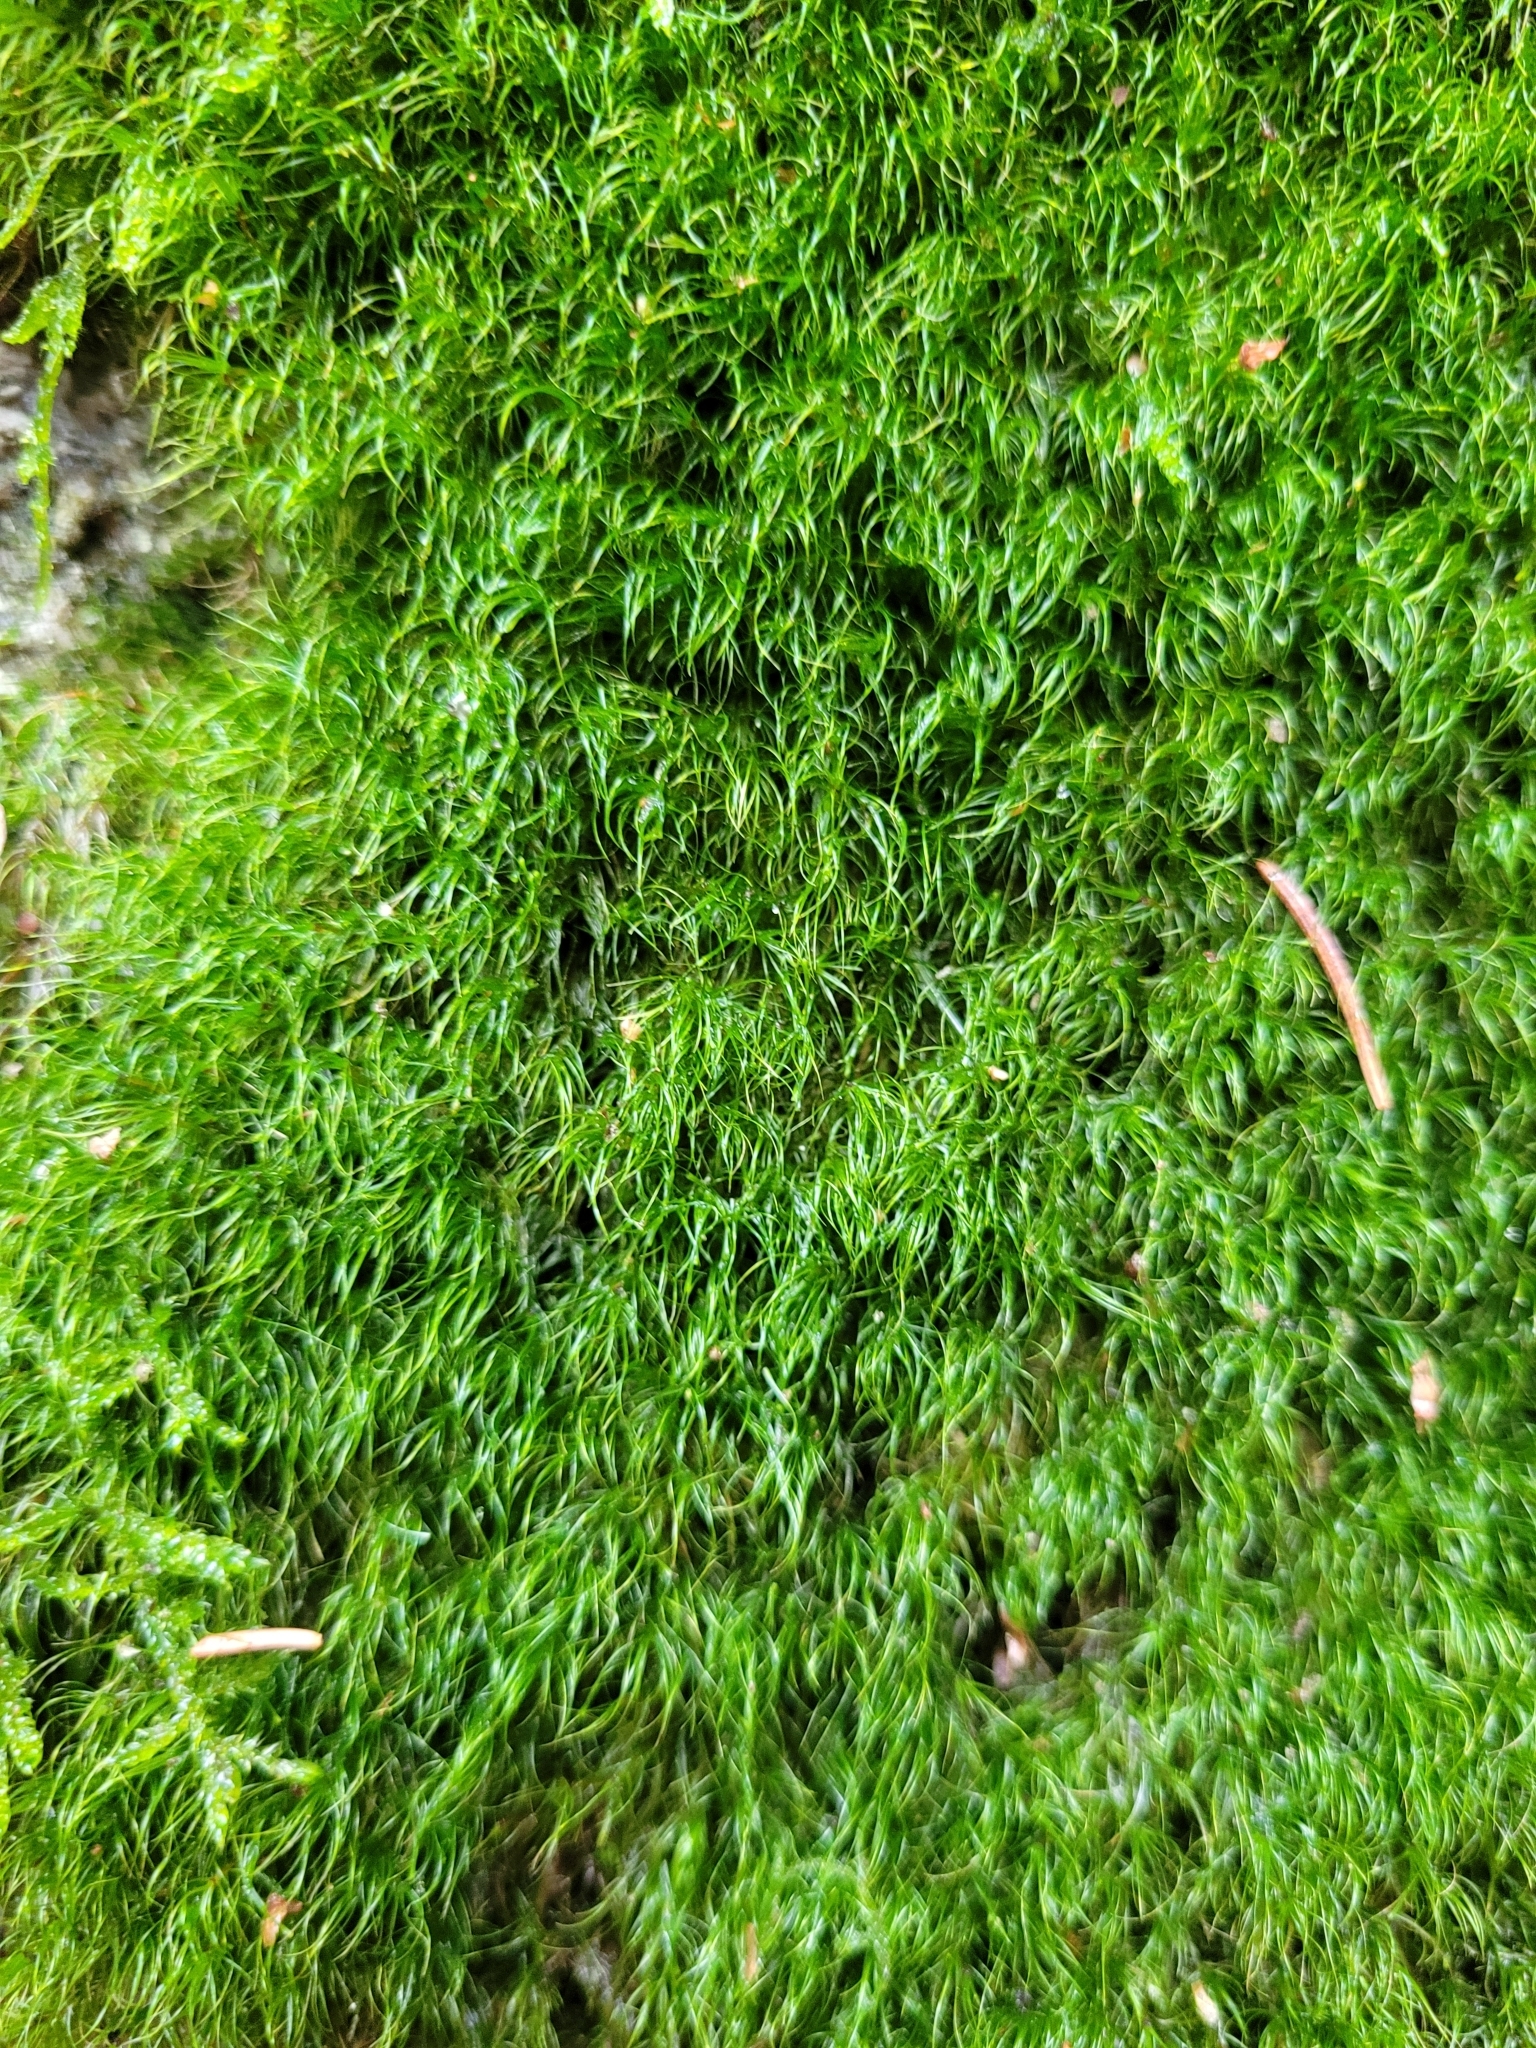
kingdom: Plantae
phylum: Bryophyta
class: Bryopsida
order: Dicranales
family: Leucobryaceae
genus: Dicranodontium
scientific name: Dicranodontium denudatum
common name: Beaked bow moss
